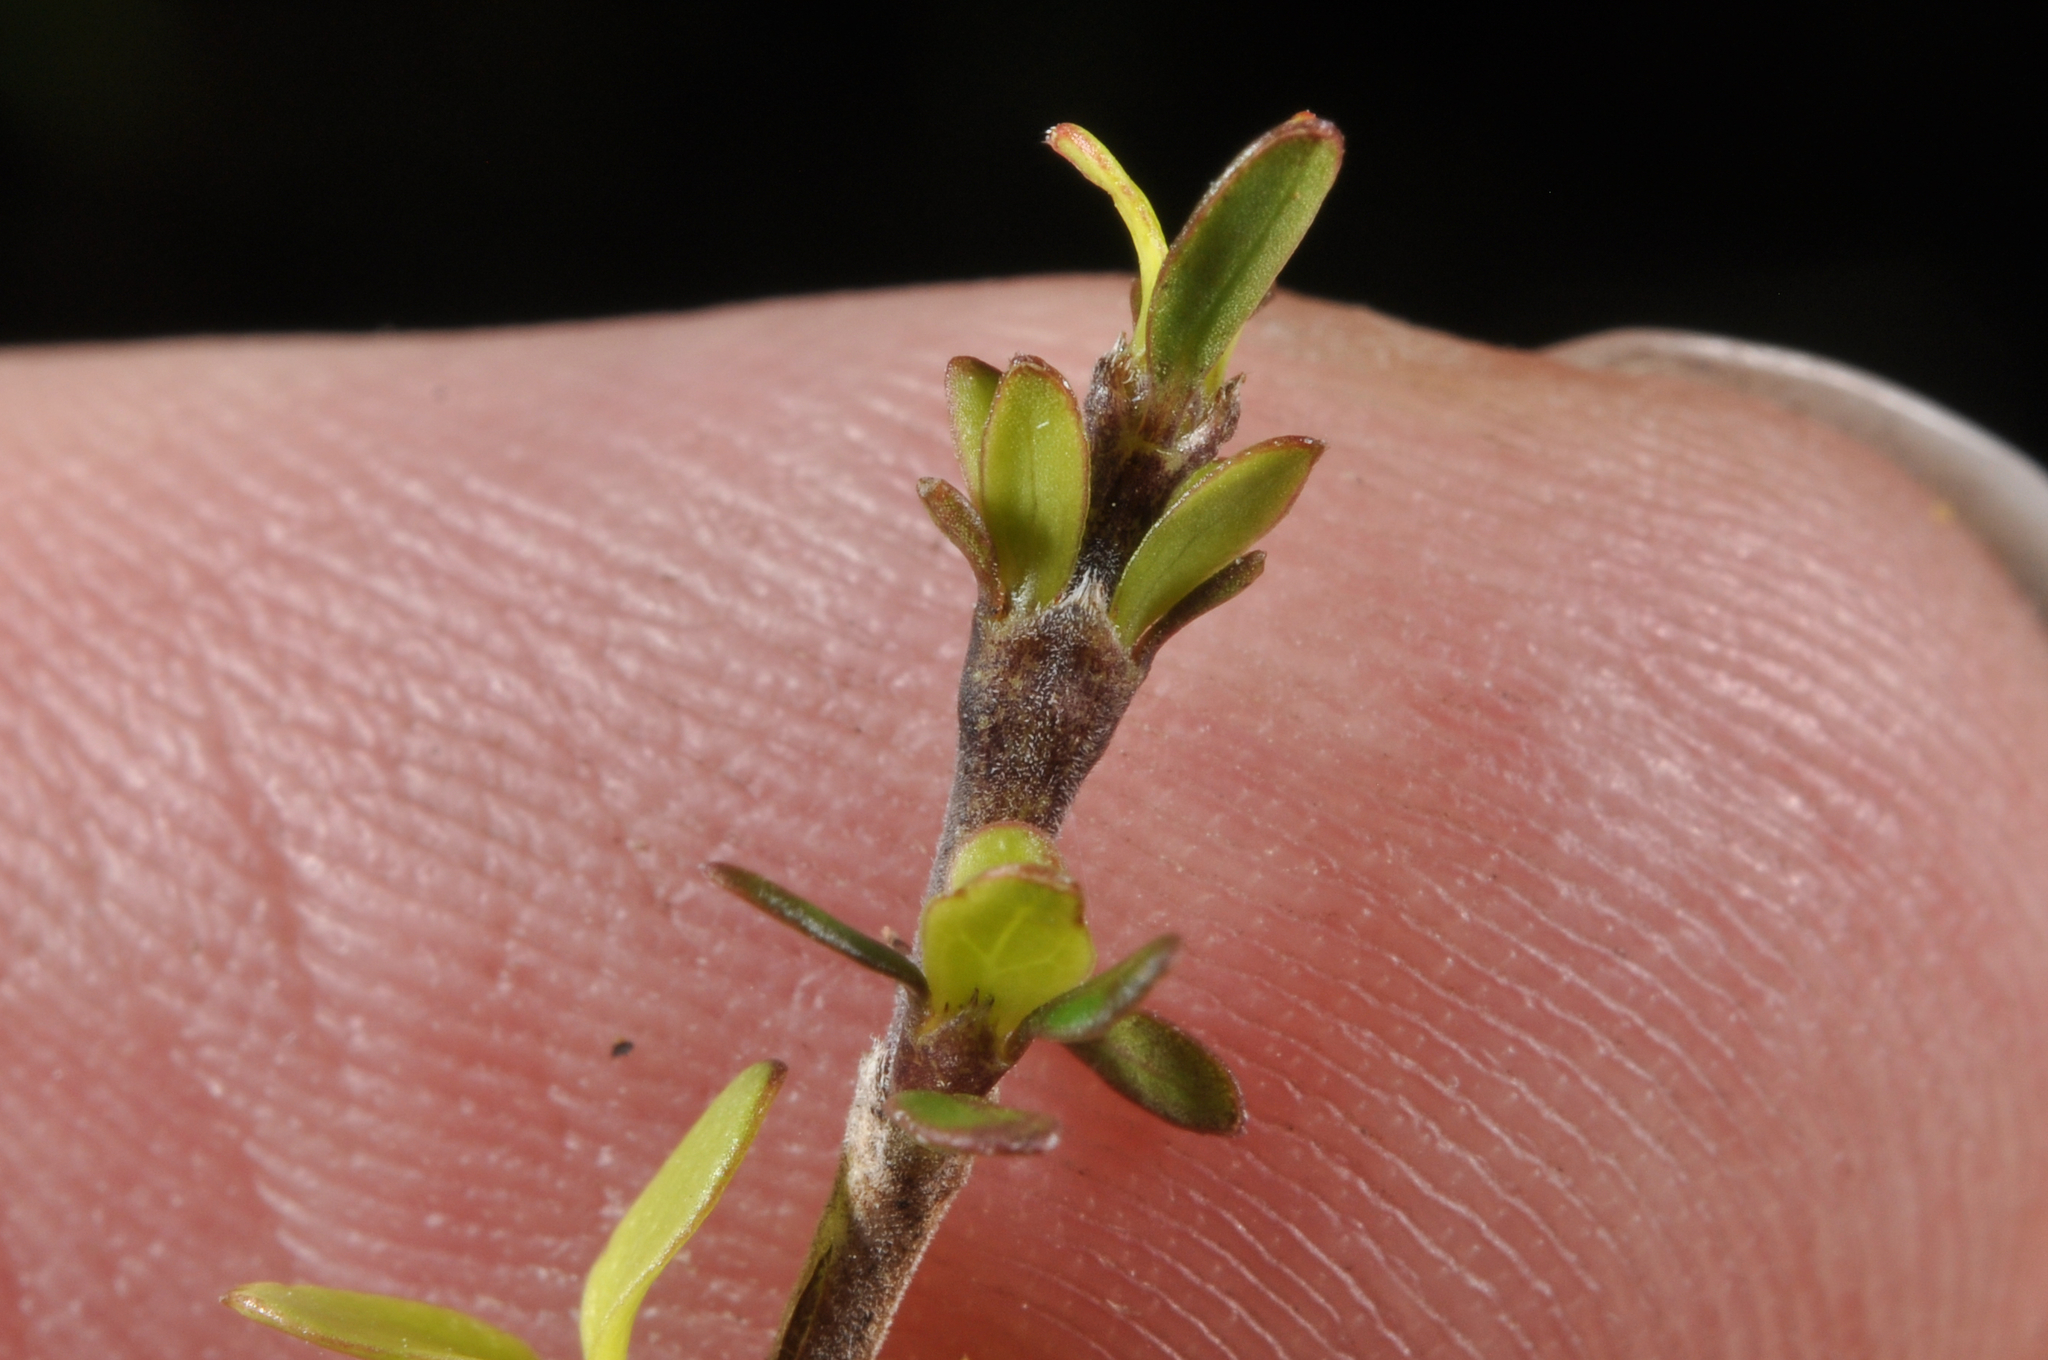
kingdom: Plantae
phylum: Tracheophyta
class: Magnoliopsida
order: Gentianales
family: Rubiaceae
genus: Coprosma
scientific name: Coprosma dumosa
